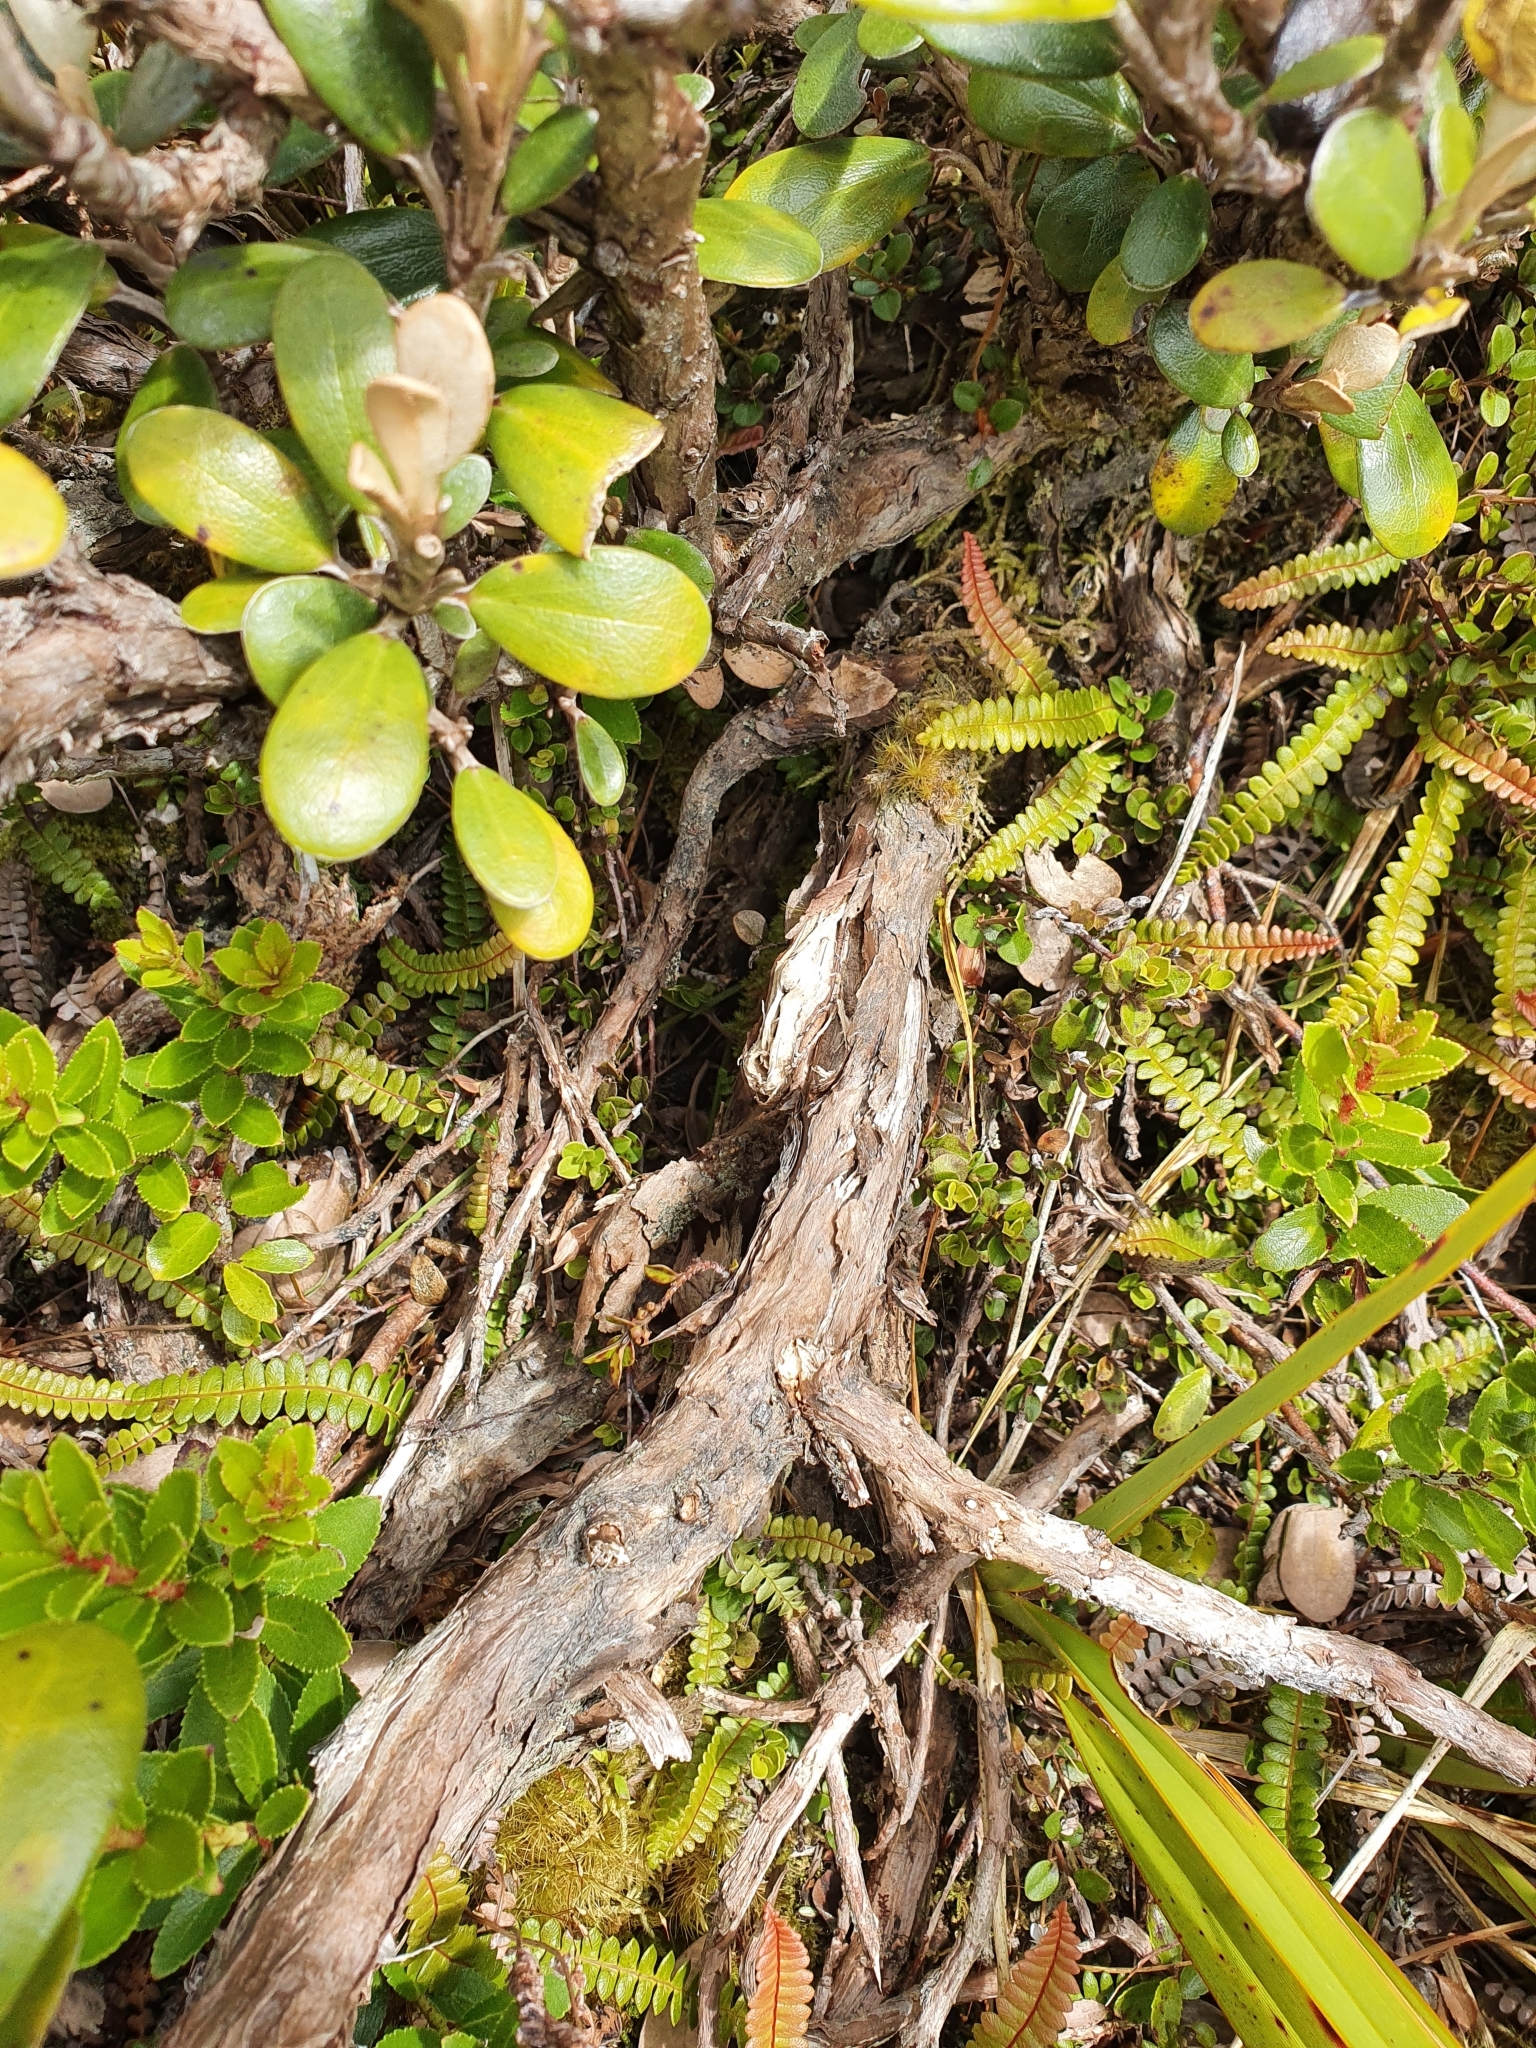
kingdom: Plantae
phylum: Tracheophyta
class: Magnoliopsida
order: Asterales
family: Asteraceae
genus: Brachyglottis
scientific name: Brachyglottis bidwillii
